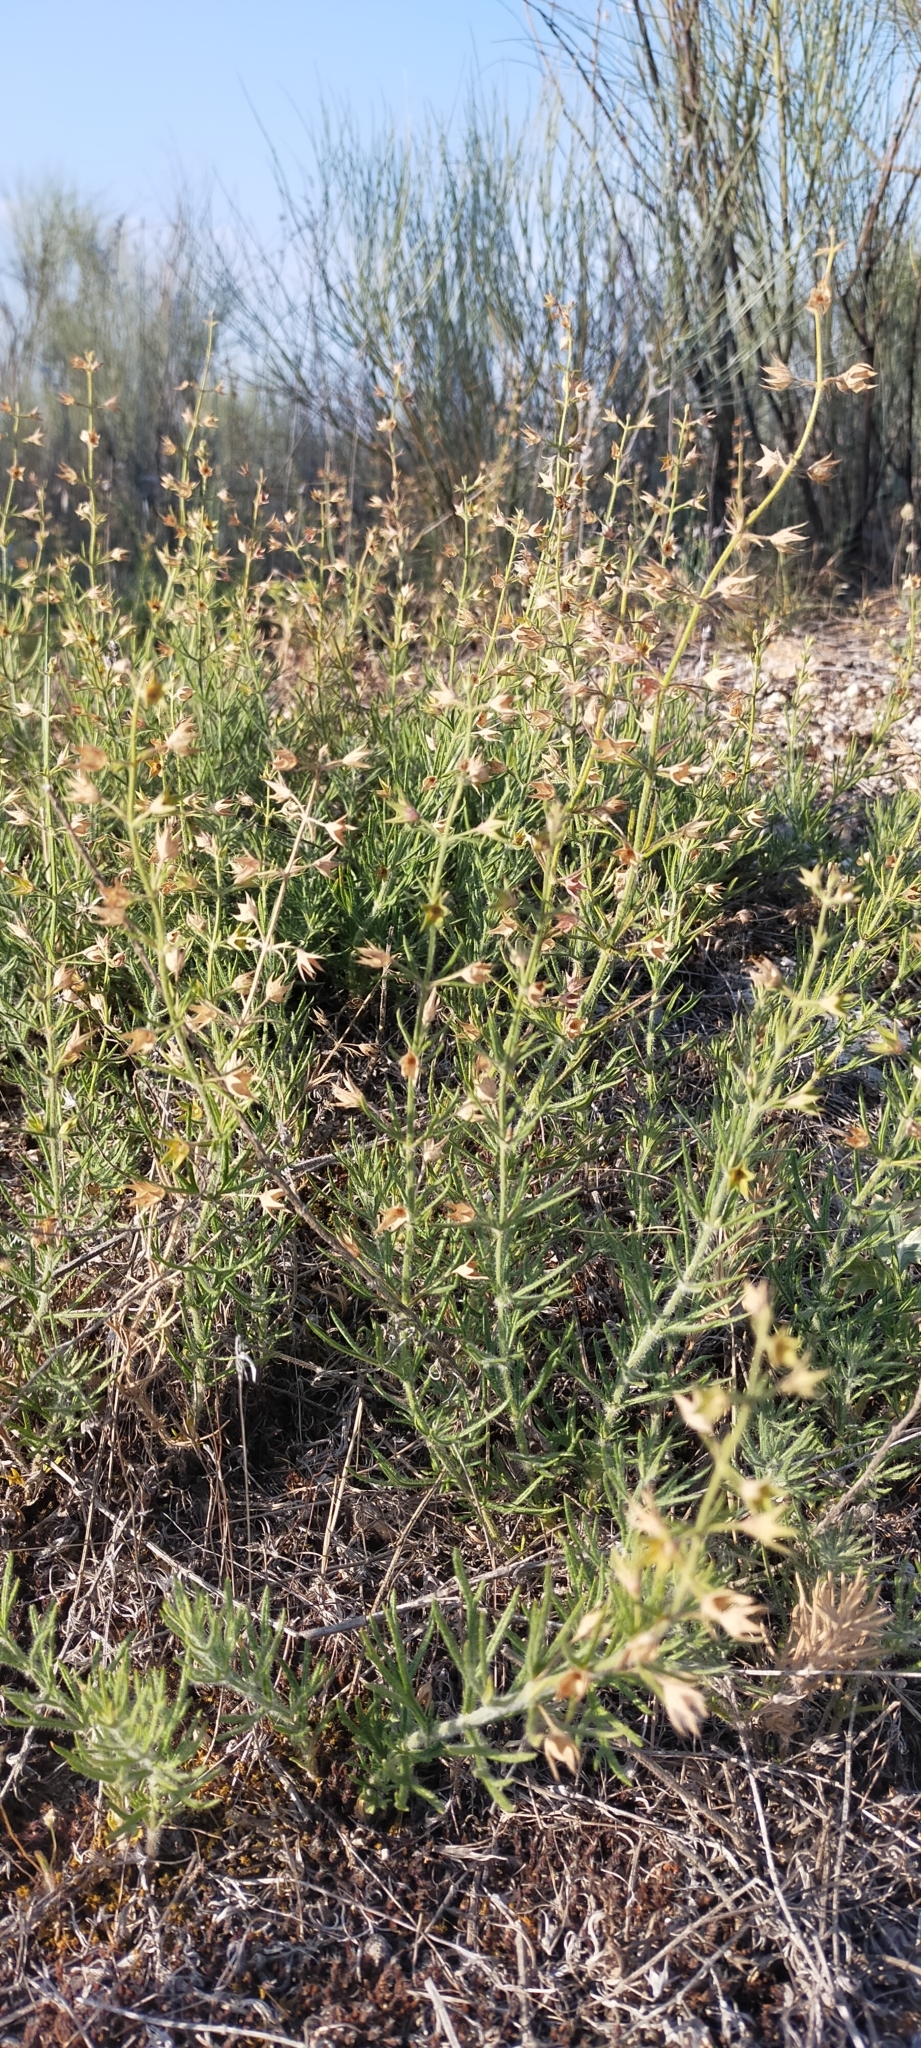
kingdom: Plantae
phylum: Tracheophyta
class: Magnoliopsida
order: Lamiales
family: Lamiaceae
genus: Teucrium
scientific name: Teucrium pseudochamaepitys
